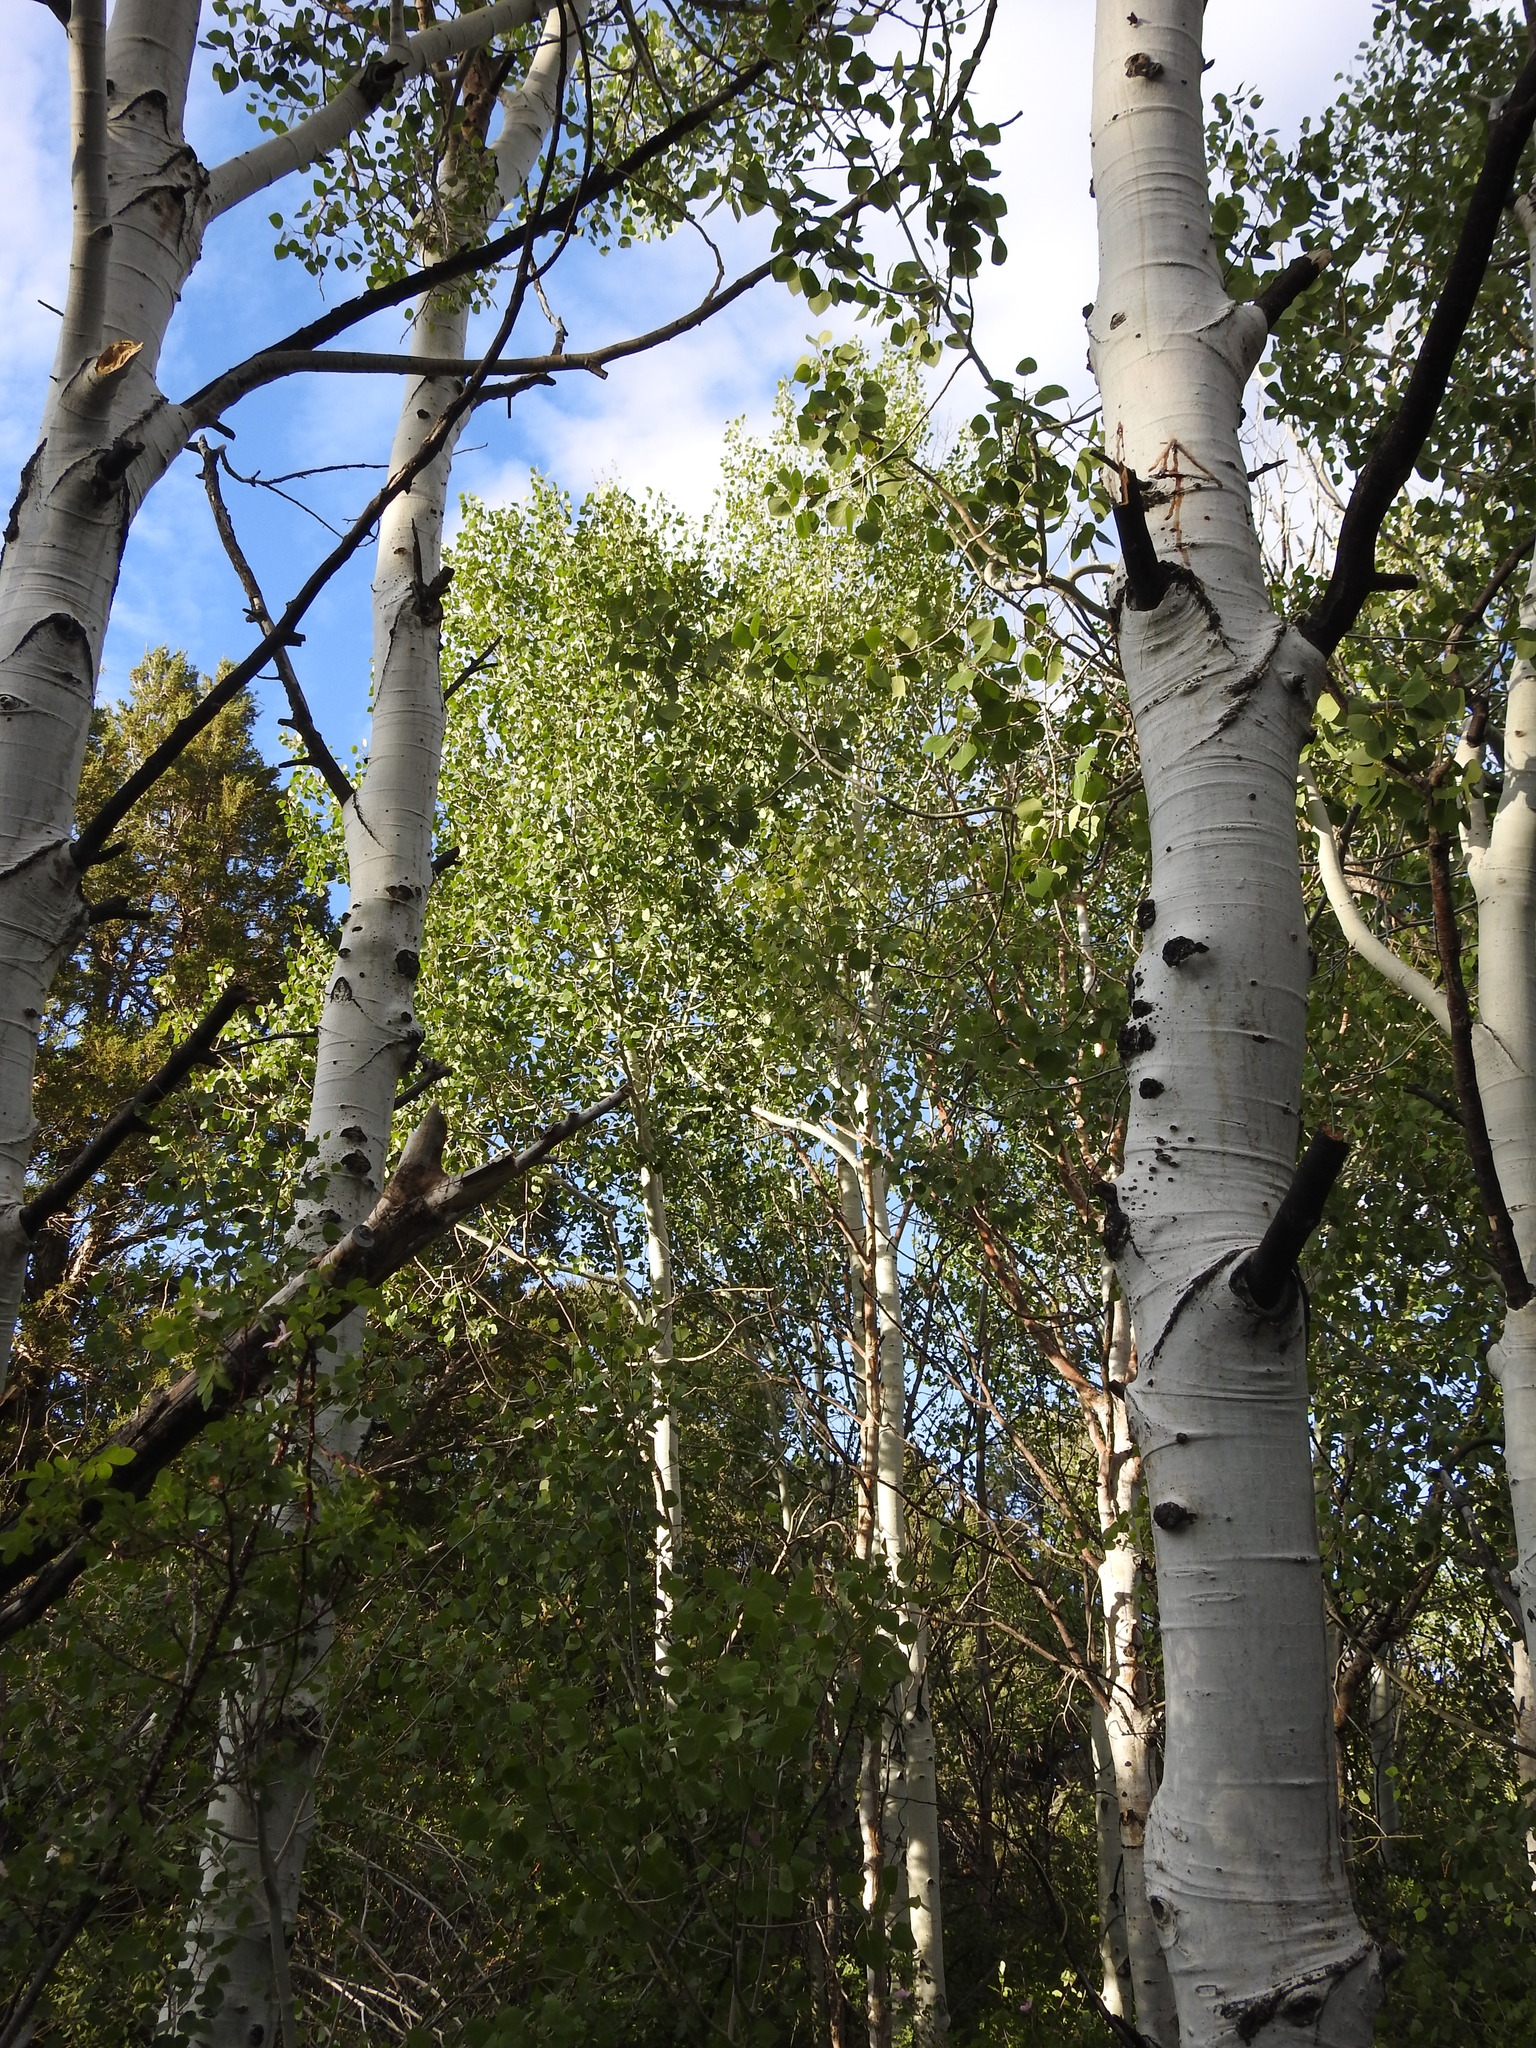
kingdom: Plantae
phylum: Tracheophyta
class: Magnoliopsida
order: Malpighiales
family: Salicaceae
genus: Populus
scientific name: Populus tremuloides
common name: Quaking aspen
